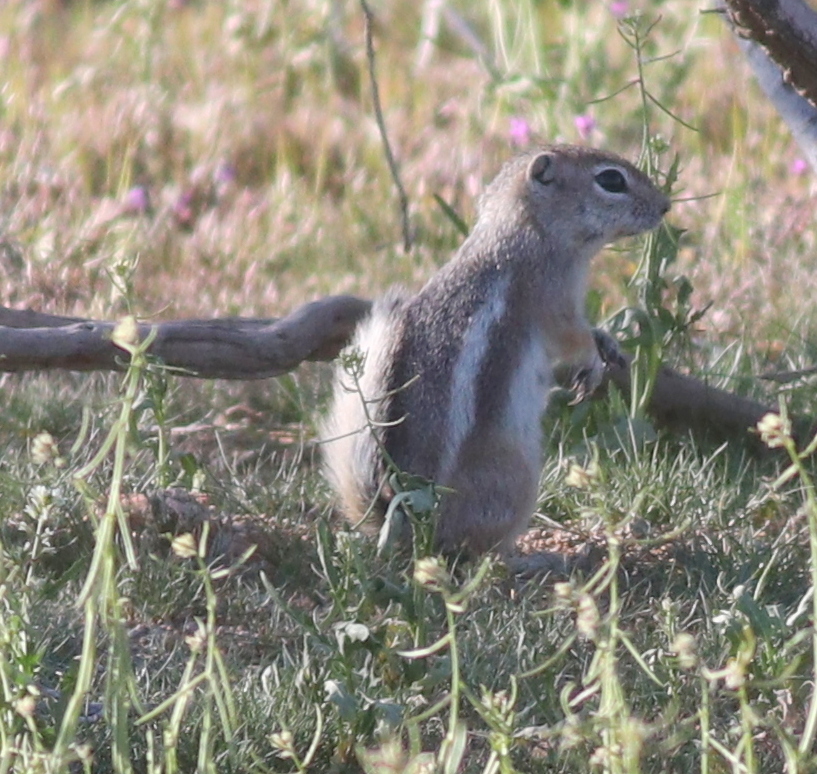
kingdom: Animalia
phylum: Chordata
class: Mammalia
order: Rodentia
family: Sciuridae
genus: Ammospermophilus
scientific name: Ammospermophilus leucurus
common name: White-tailed antelope squirrel
